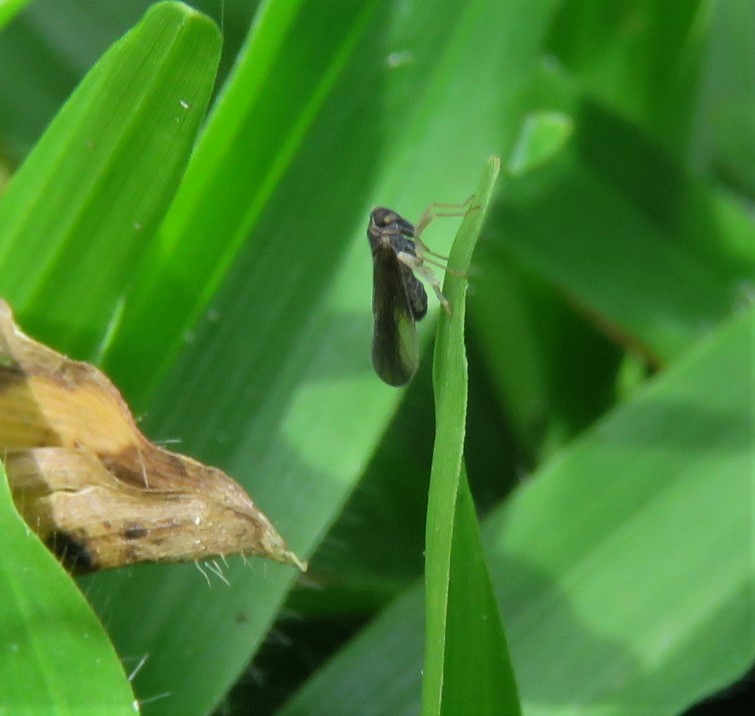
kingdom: Animalia
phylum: Arthropoda
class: Insecta
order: Hemiptera
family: Delphacidae
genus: Caenodelphax
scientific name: Caenodelphax teapae
